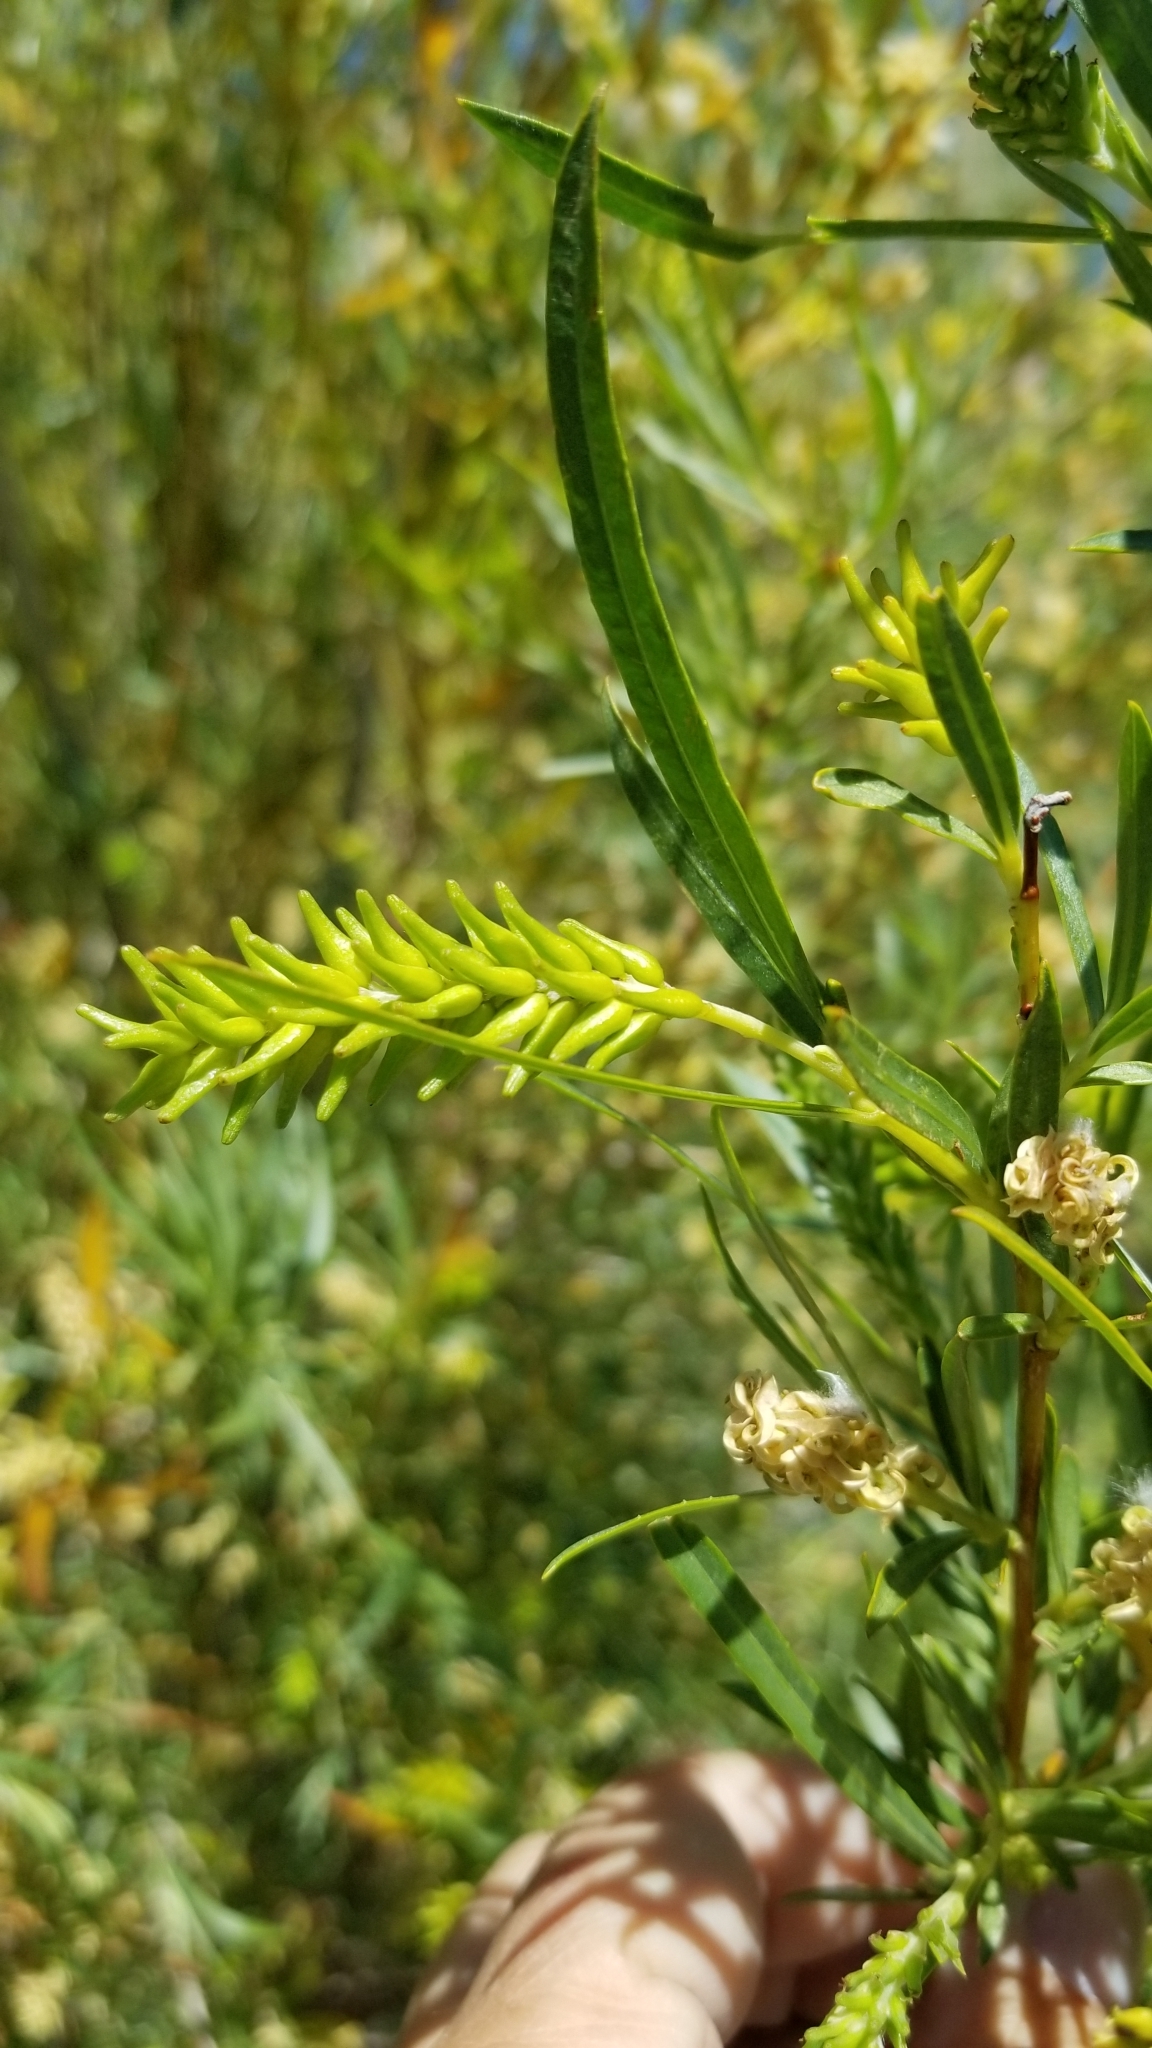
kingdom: Plantae
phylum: Tracheophyta
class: Magnoliopsida
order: Malpighiales
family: Salicaceae
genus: Salix
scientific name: Salix exigua
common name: Coyote willow
